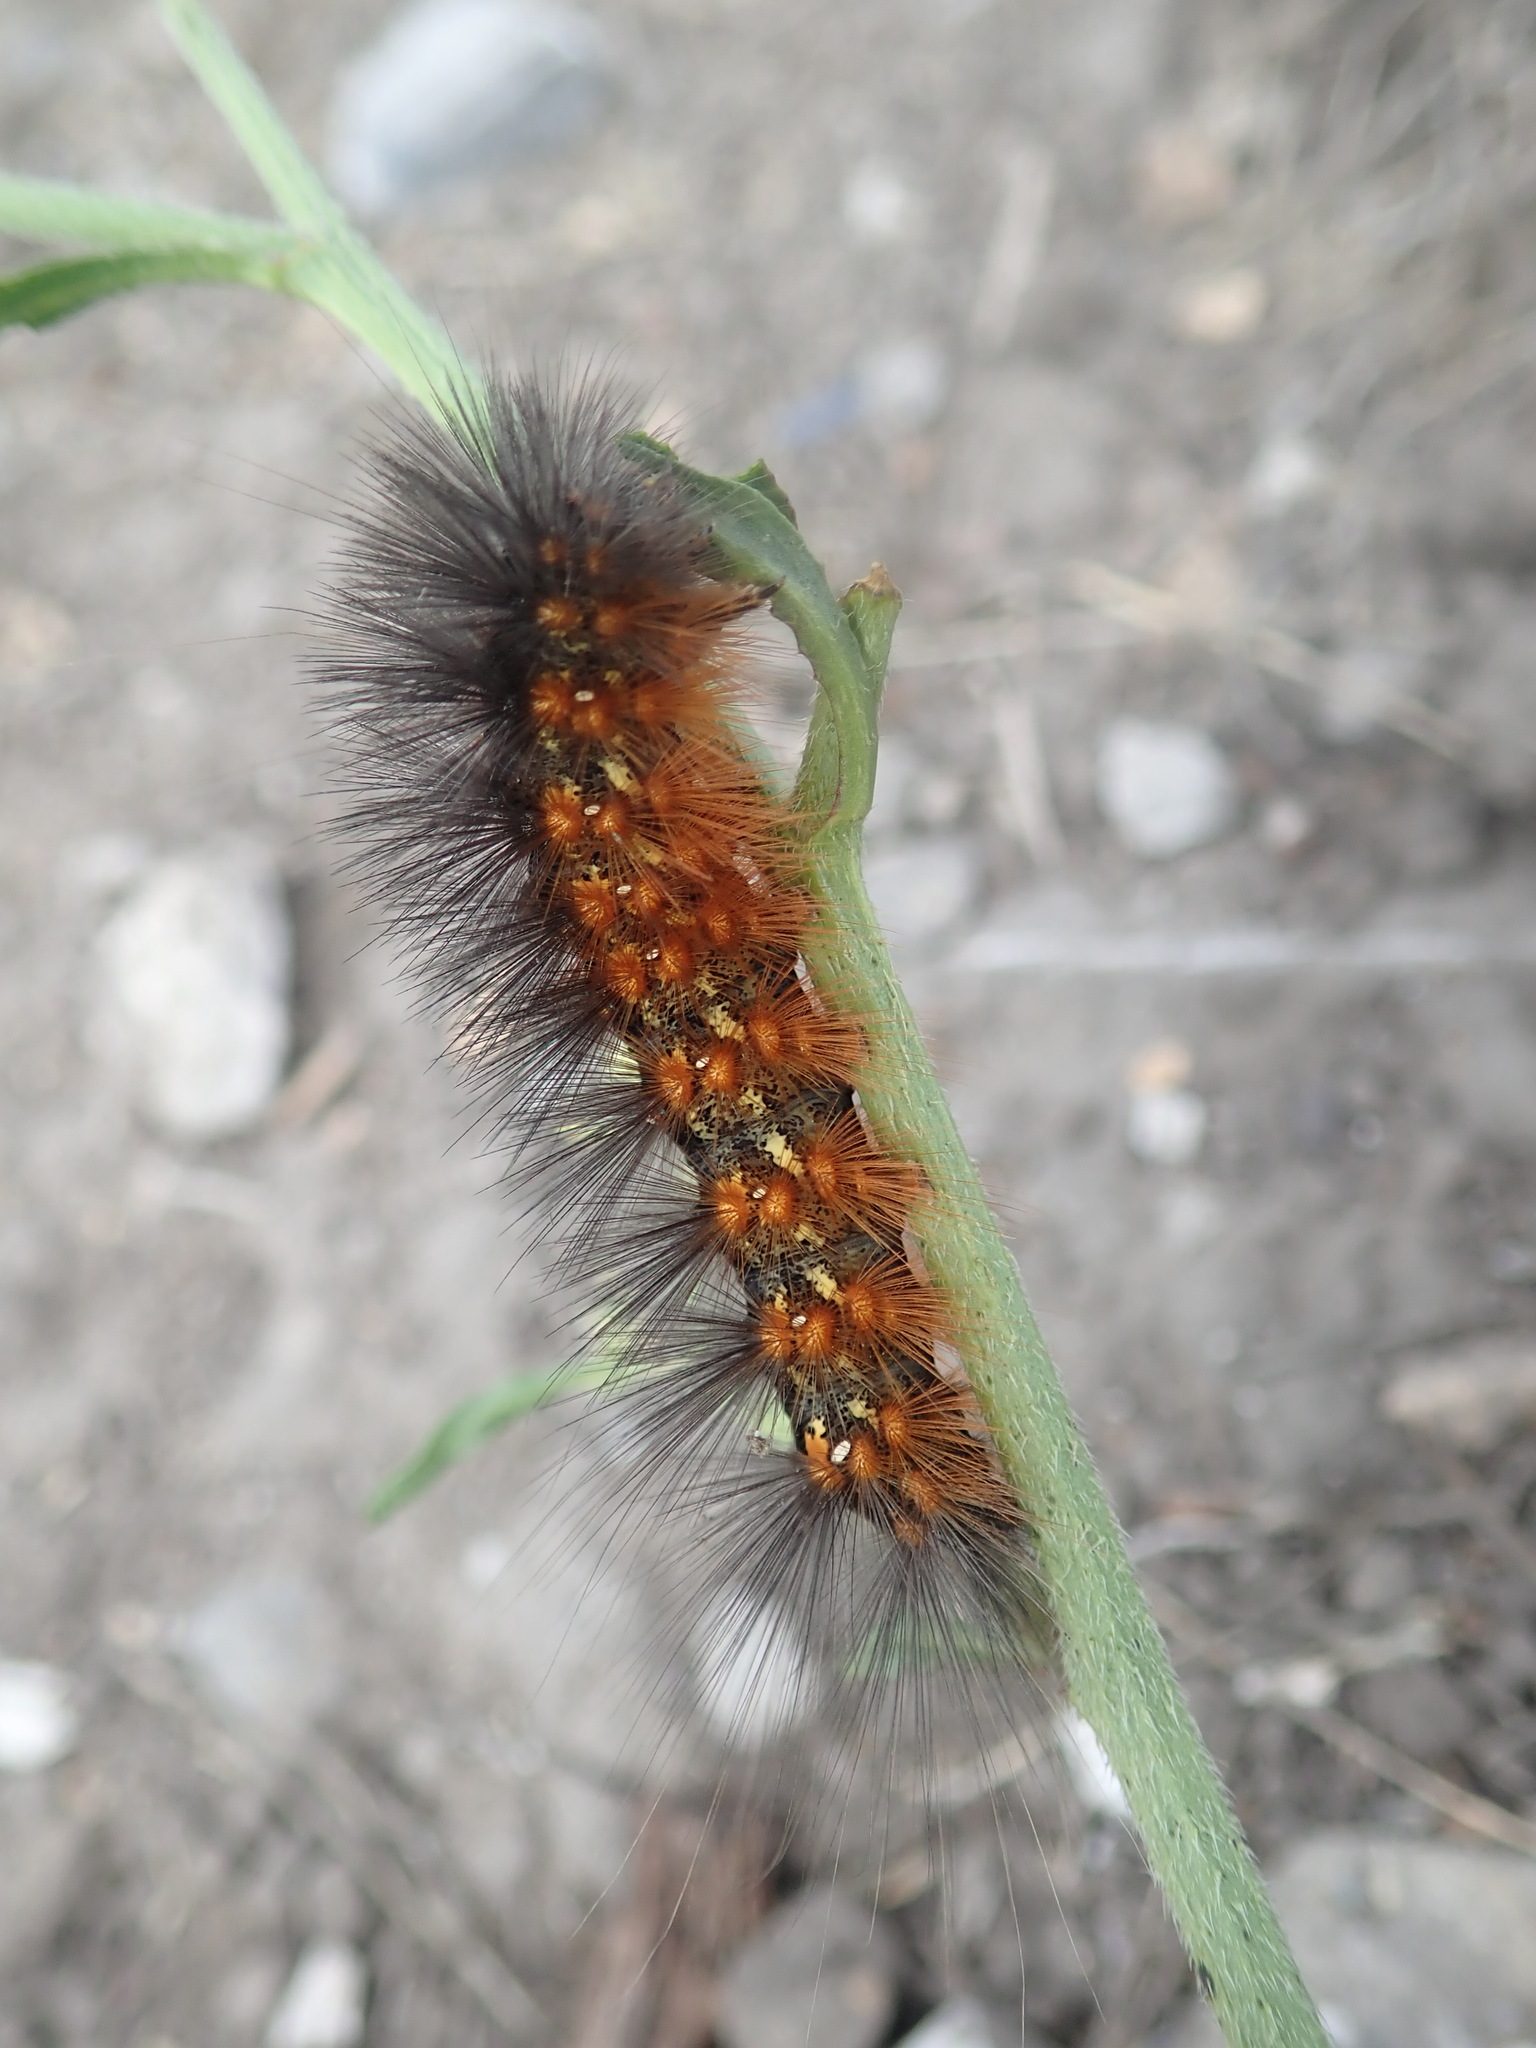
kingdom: Animalia
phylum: Arthropoda
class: Insecta
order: Lepidoptera
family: Erebidae
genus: Estigmene
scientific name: Estigmene acrea
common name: Salt marsh moth
